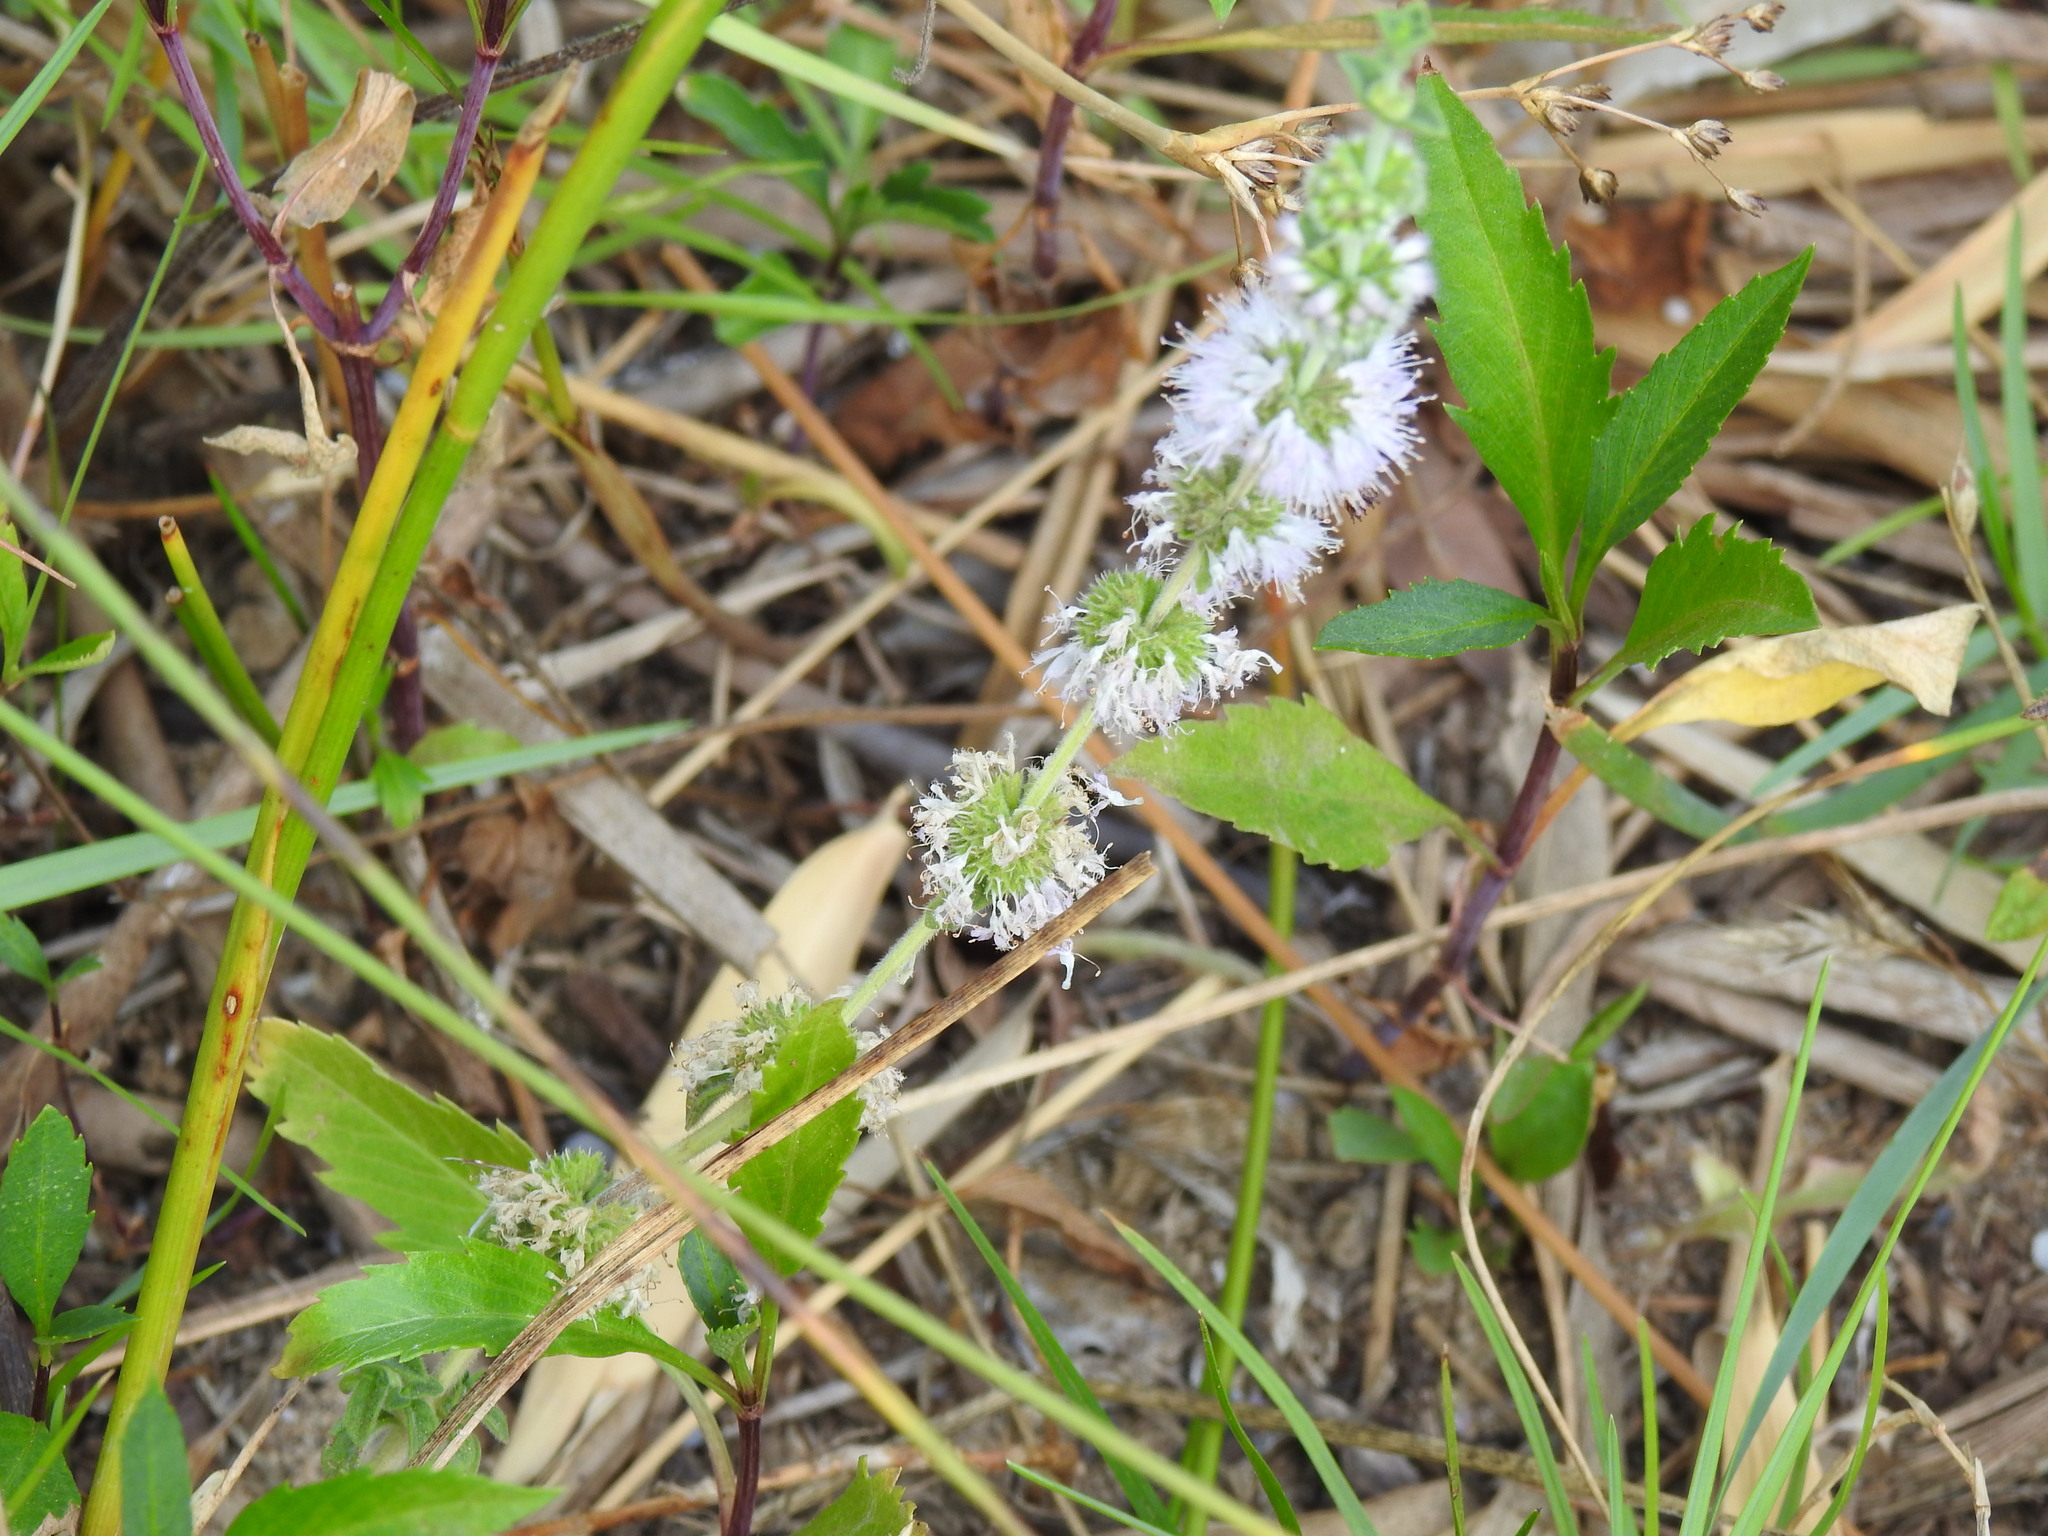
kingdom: Plantae
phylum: Tracheophyta
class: Magnoliopsida
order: Lamiales
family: Lamiaceae
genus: Mentha
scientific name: Mentha pulegium
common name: Pennyroyal
